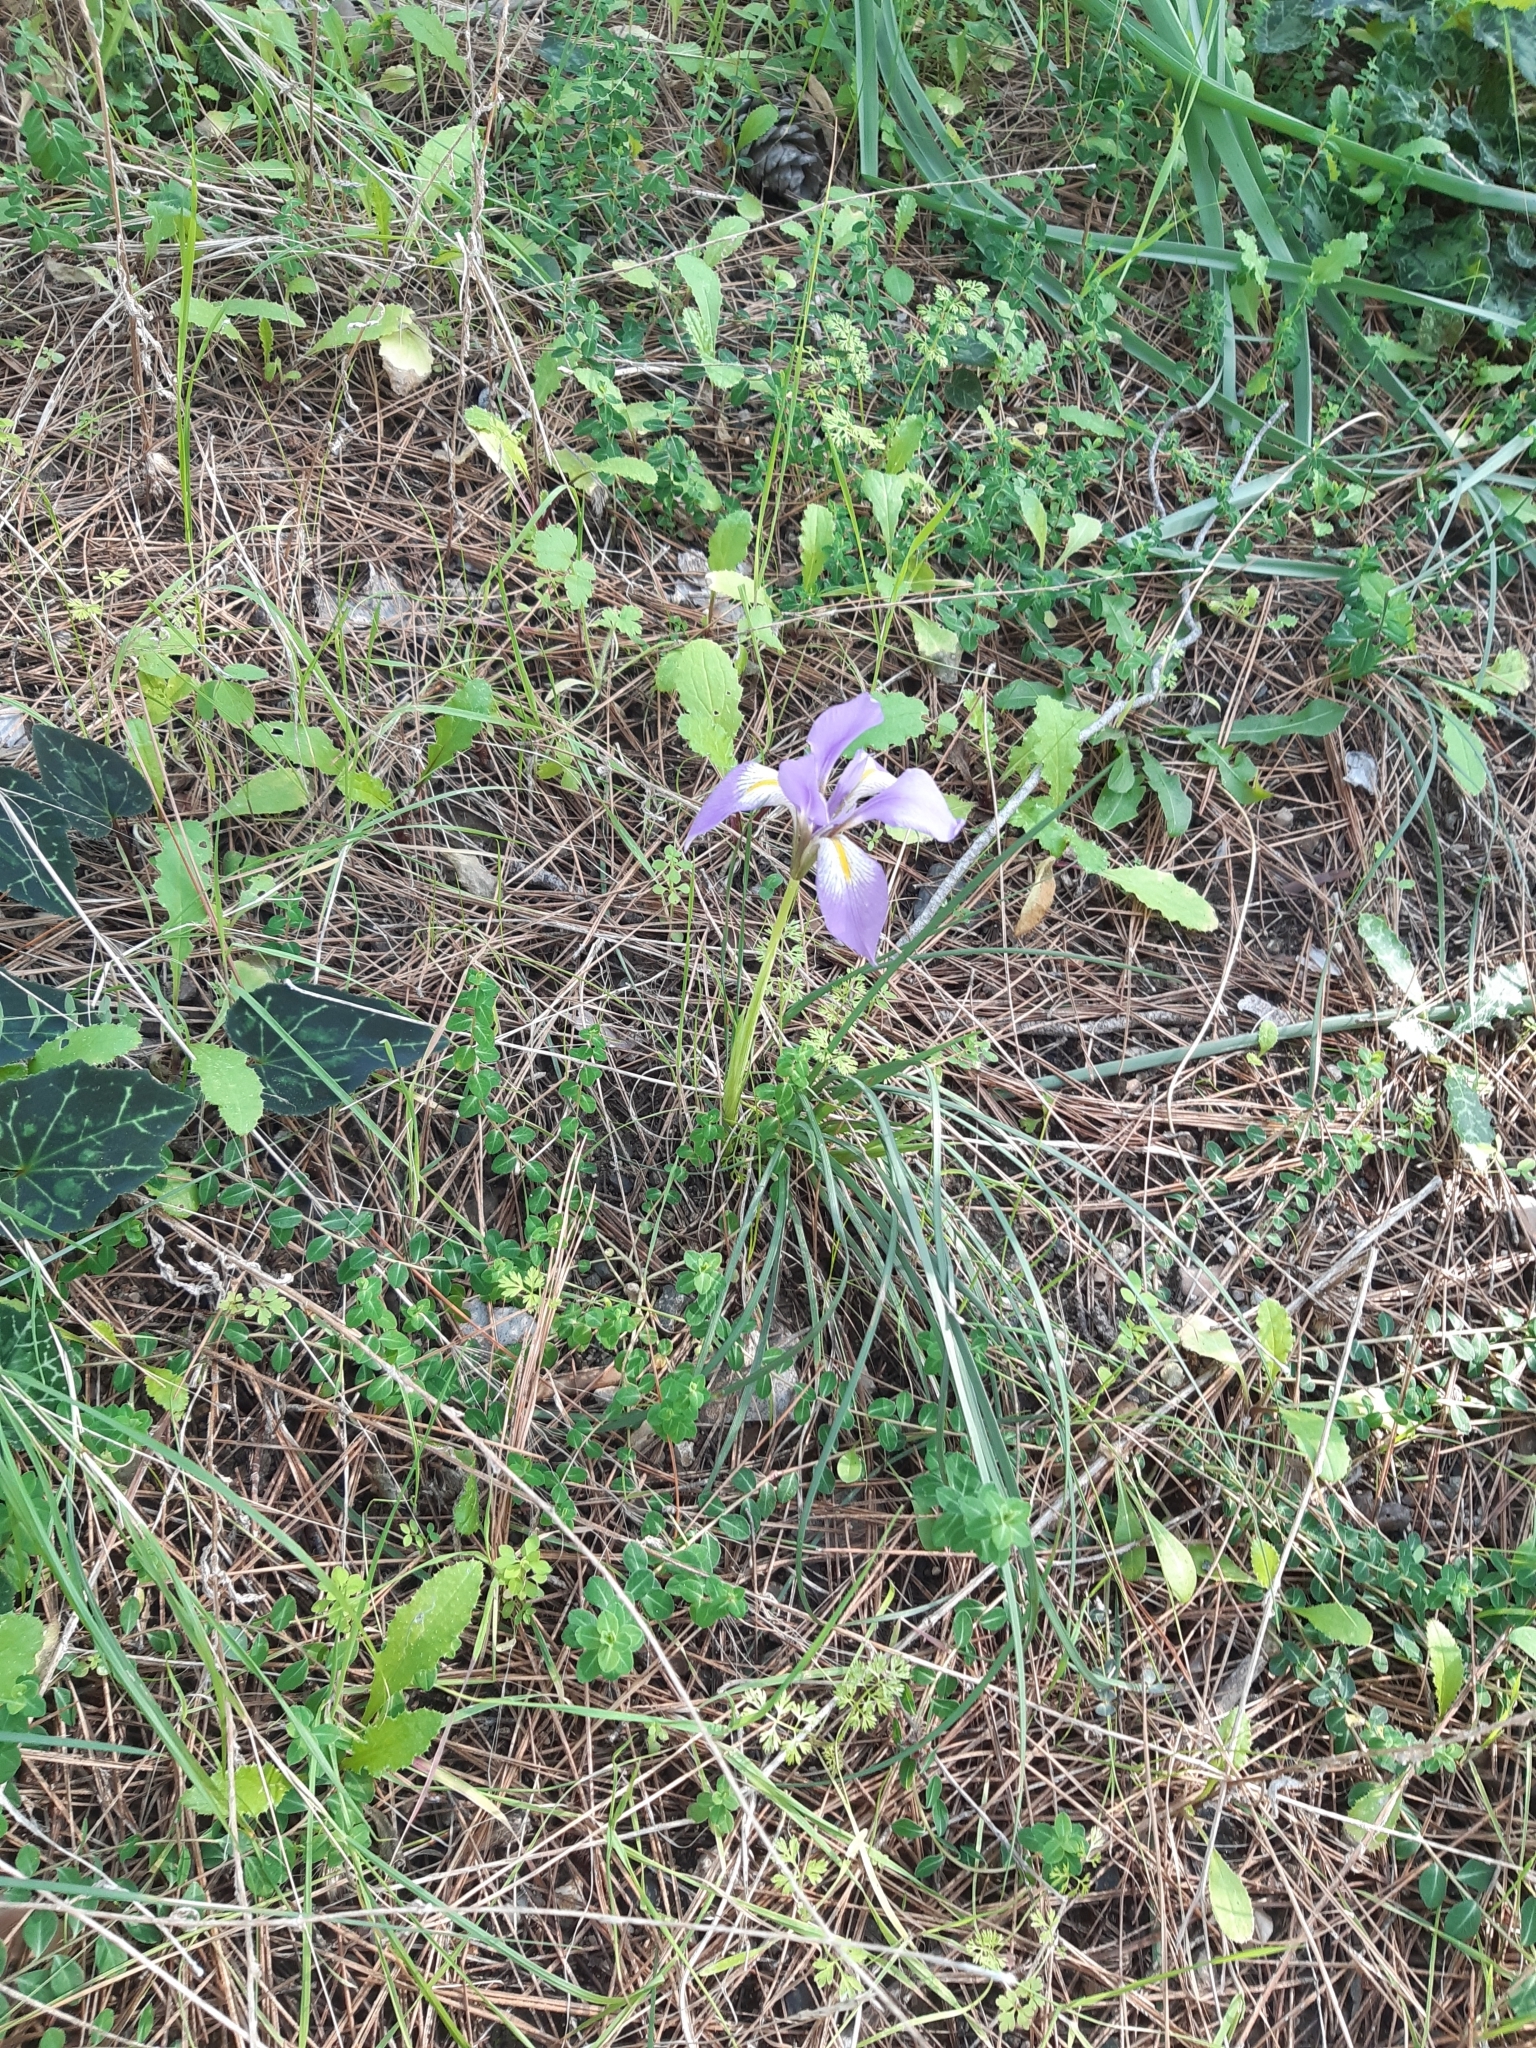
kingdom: Plantae
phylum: Tracheophyta
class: Liliopsida
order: Asparagales
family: Iridaceae
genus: Iris
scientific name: Iris unguicularis
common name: Algerian iris
